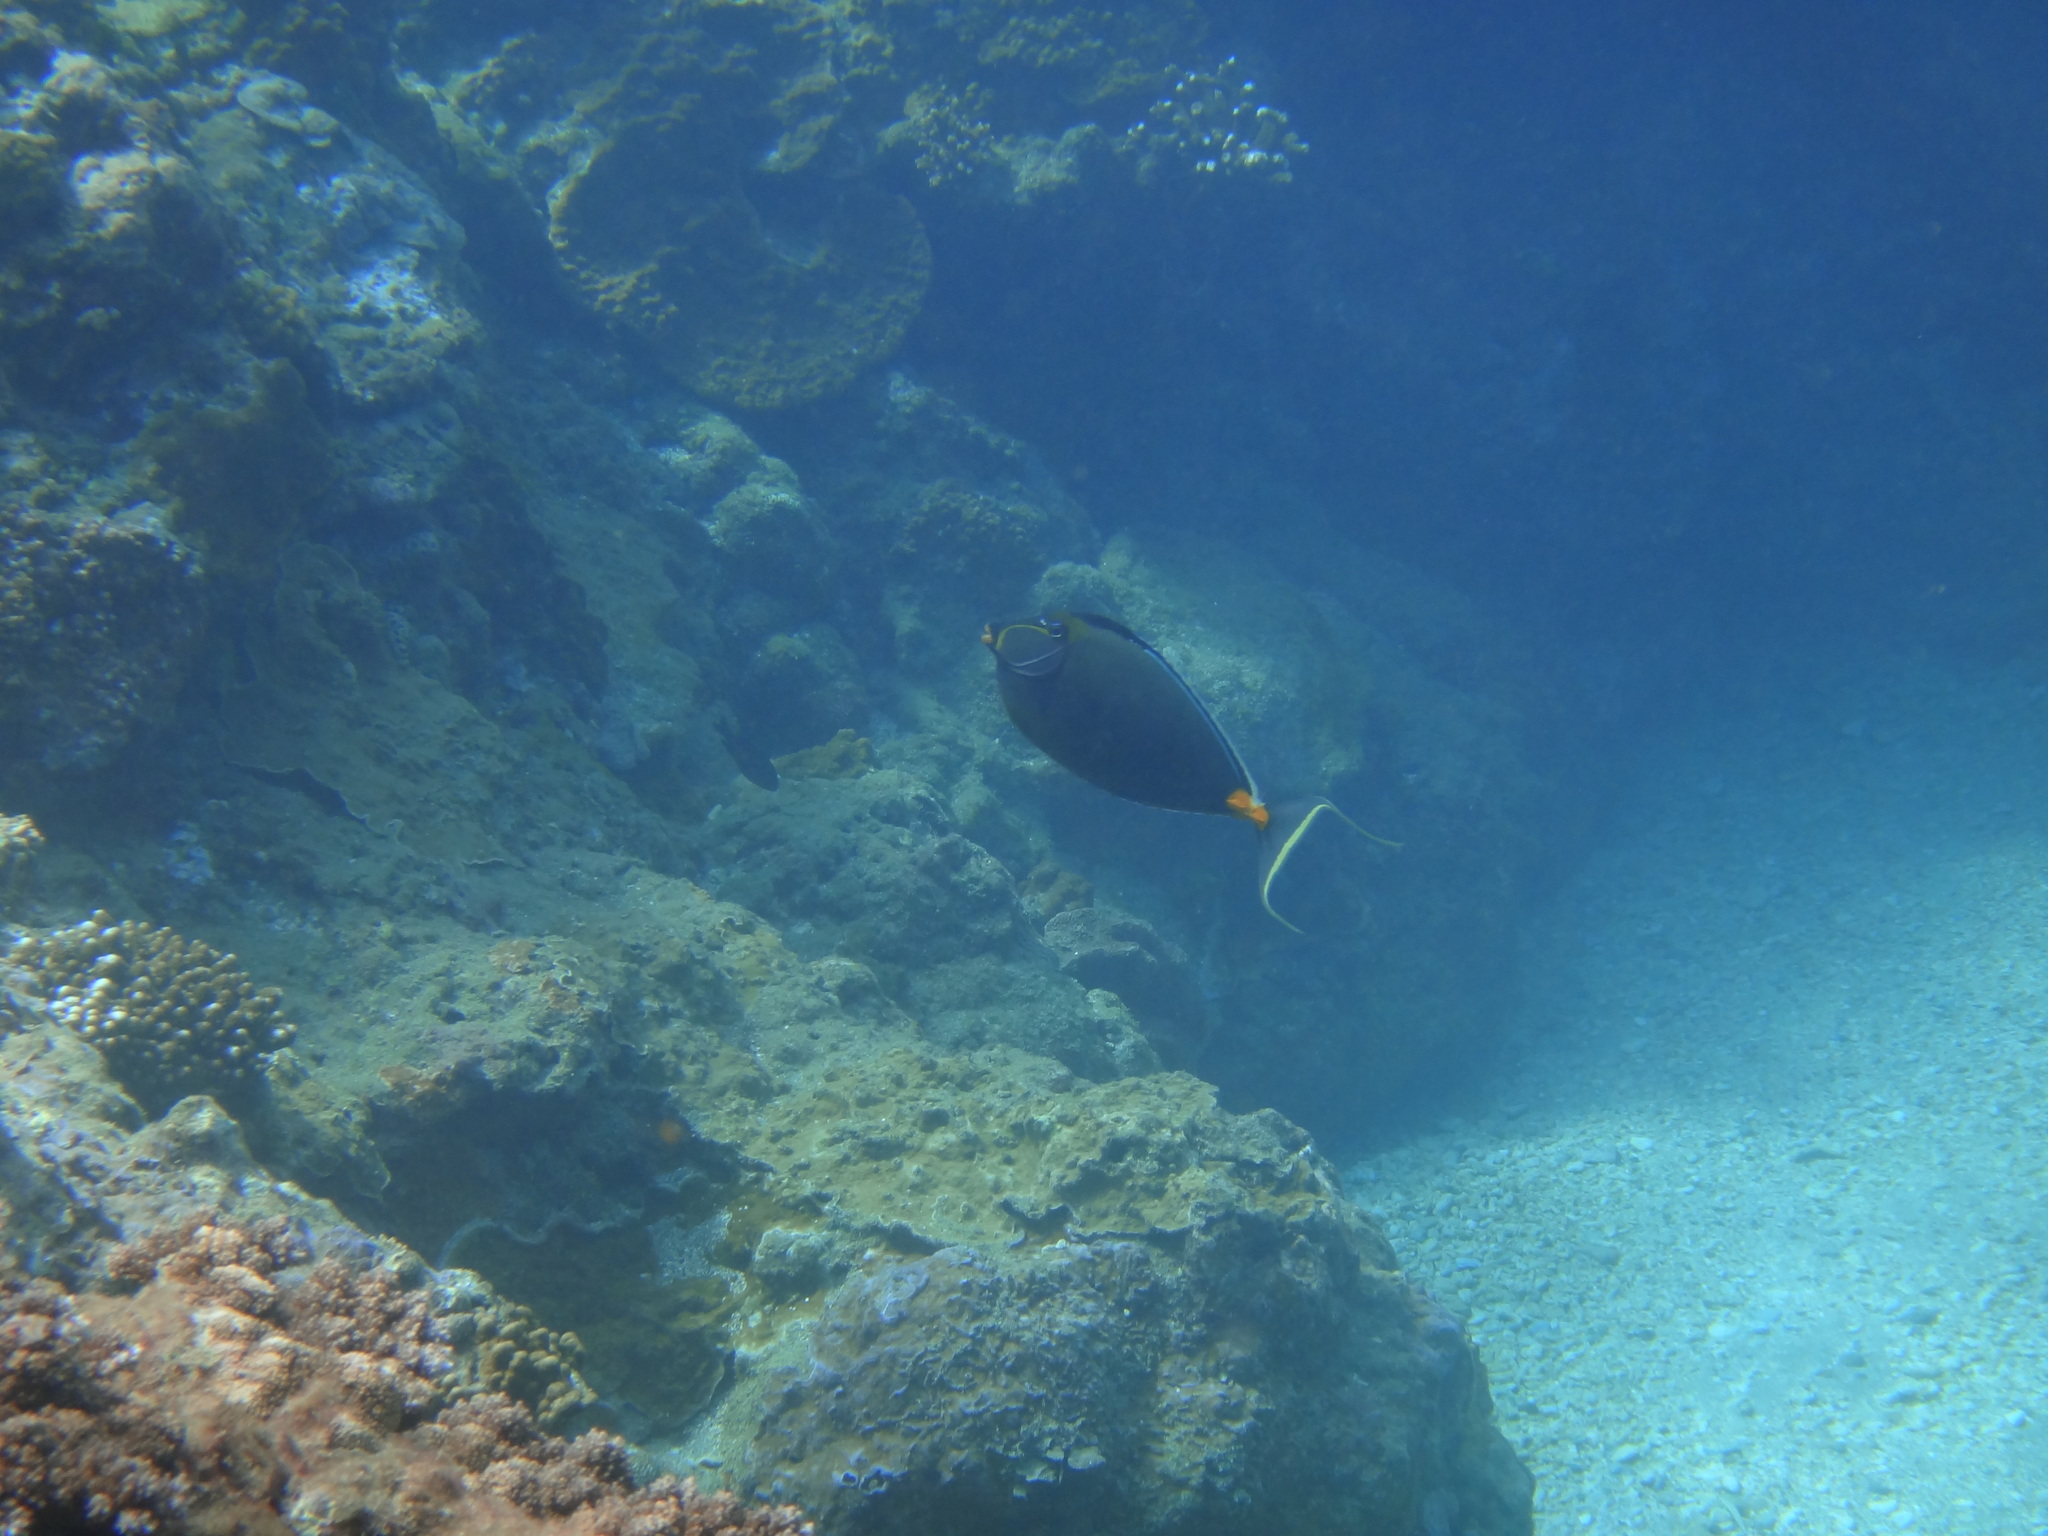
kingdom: Animalia
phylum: Chordata
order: Perciformes
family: Acanthuridae
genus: Naso
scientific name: Naso lituratus
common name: Orangespine unicornfish
